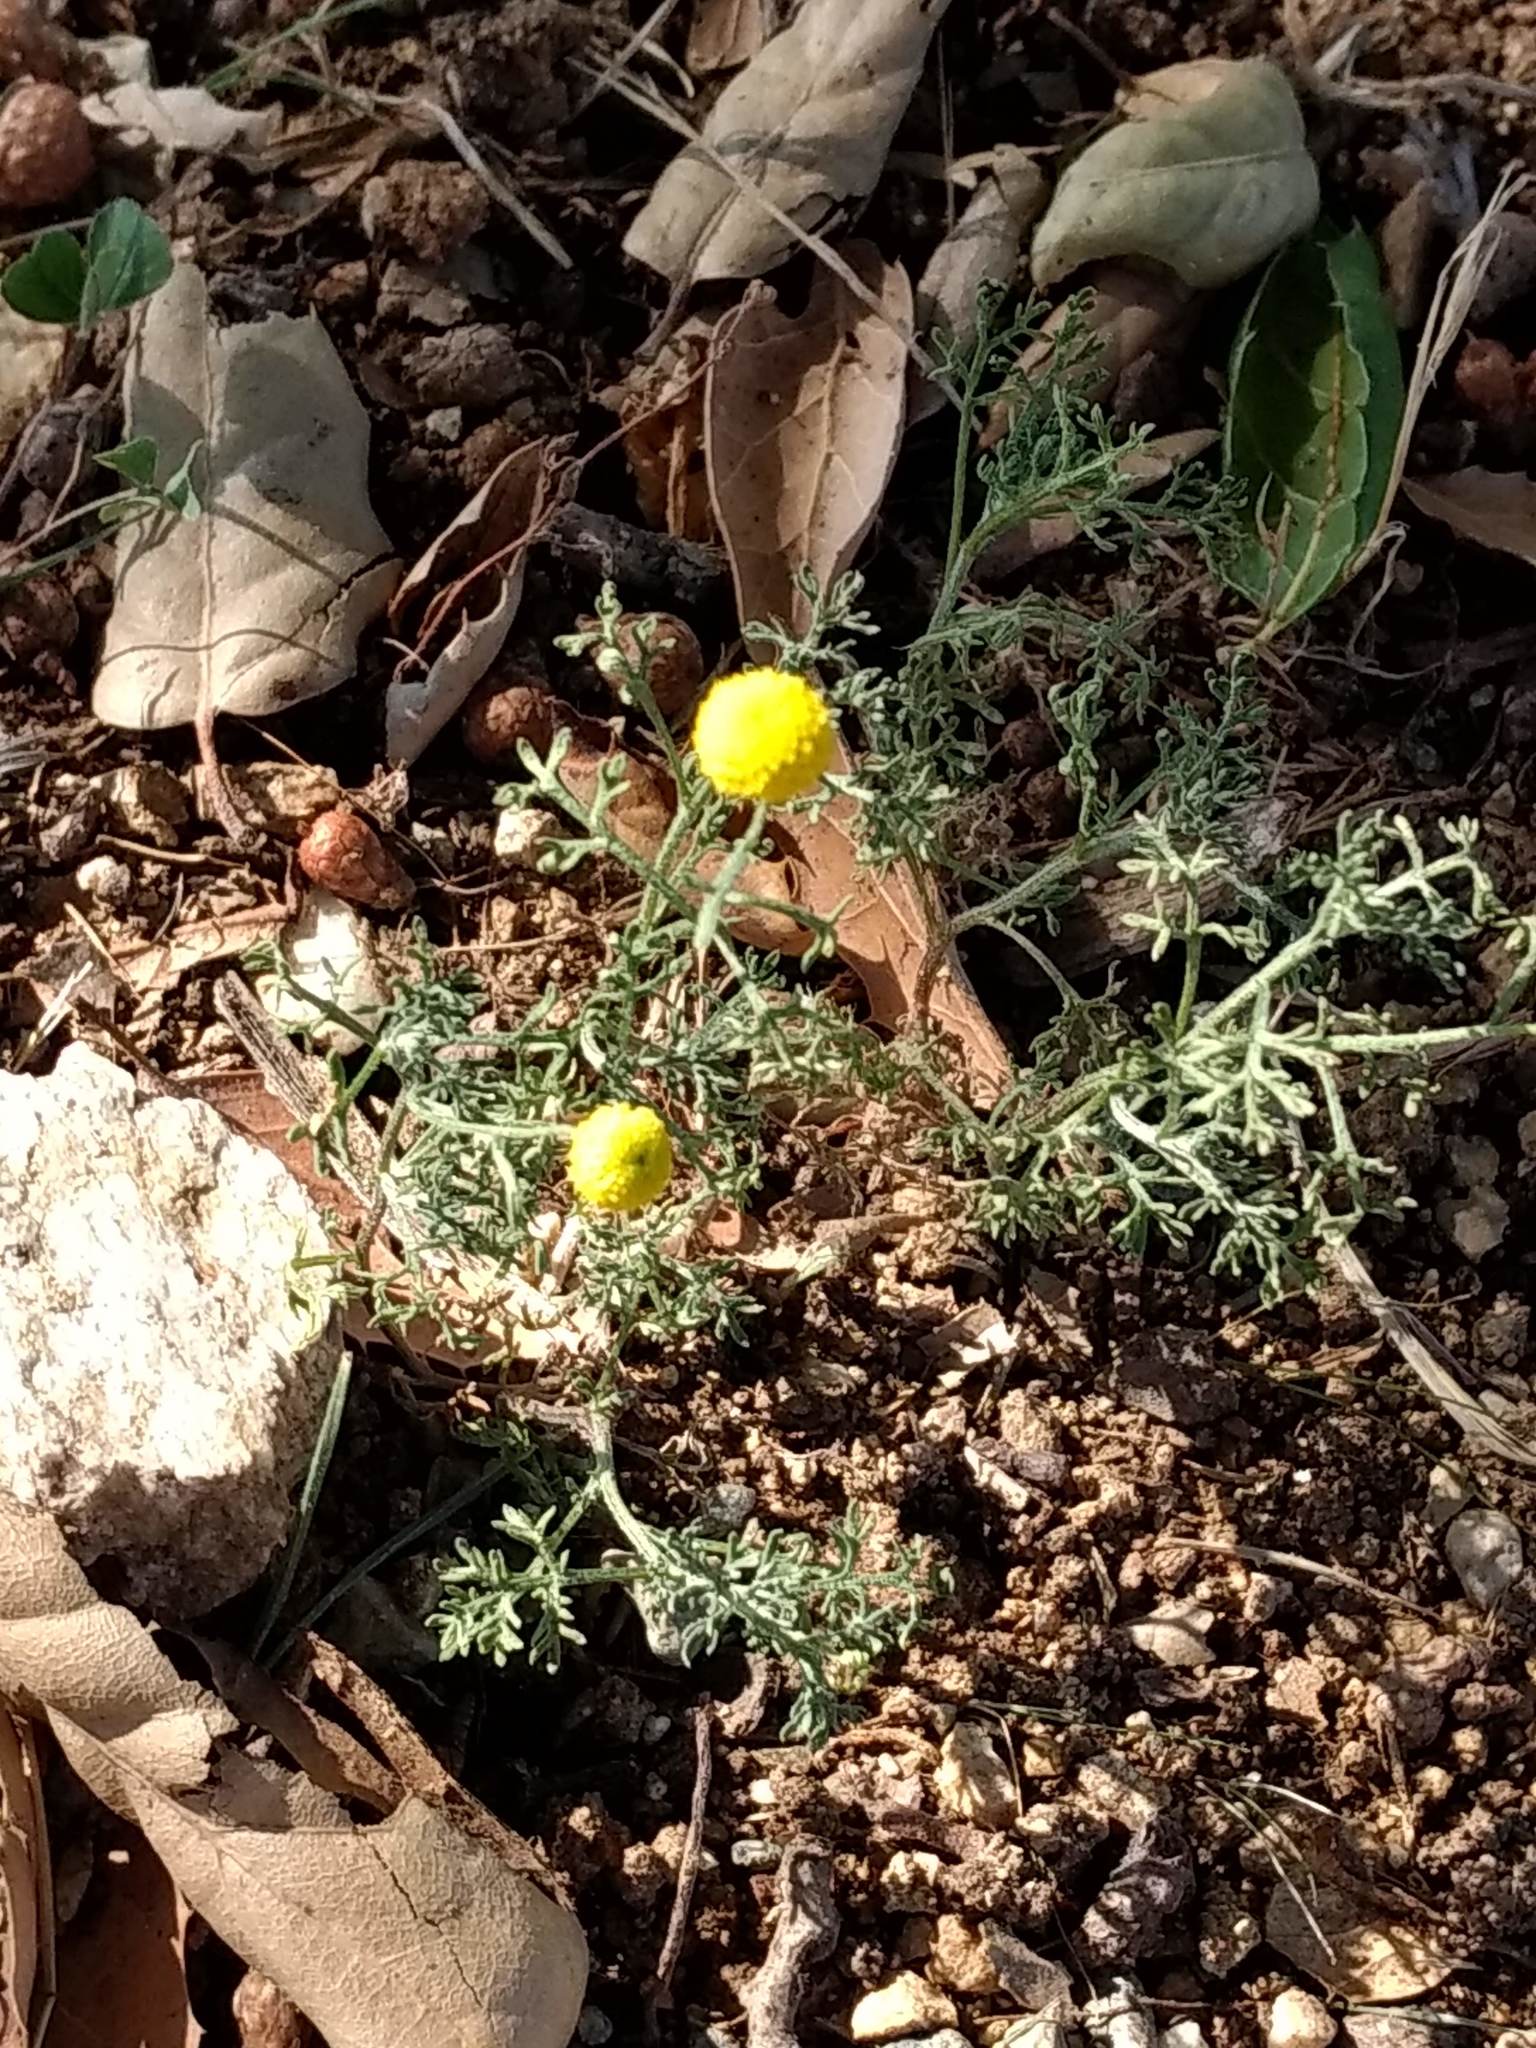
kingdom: Plantae
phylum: Tracheophyta
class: Magnoliopsida
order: Asterales
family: Asteraceae
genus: Oncosiphon
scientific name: Oncosiphon pilulifer
